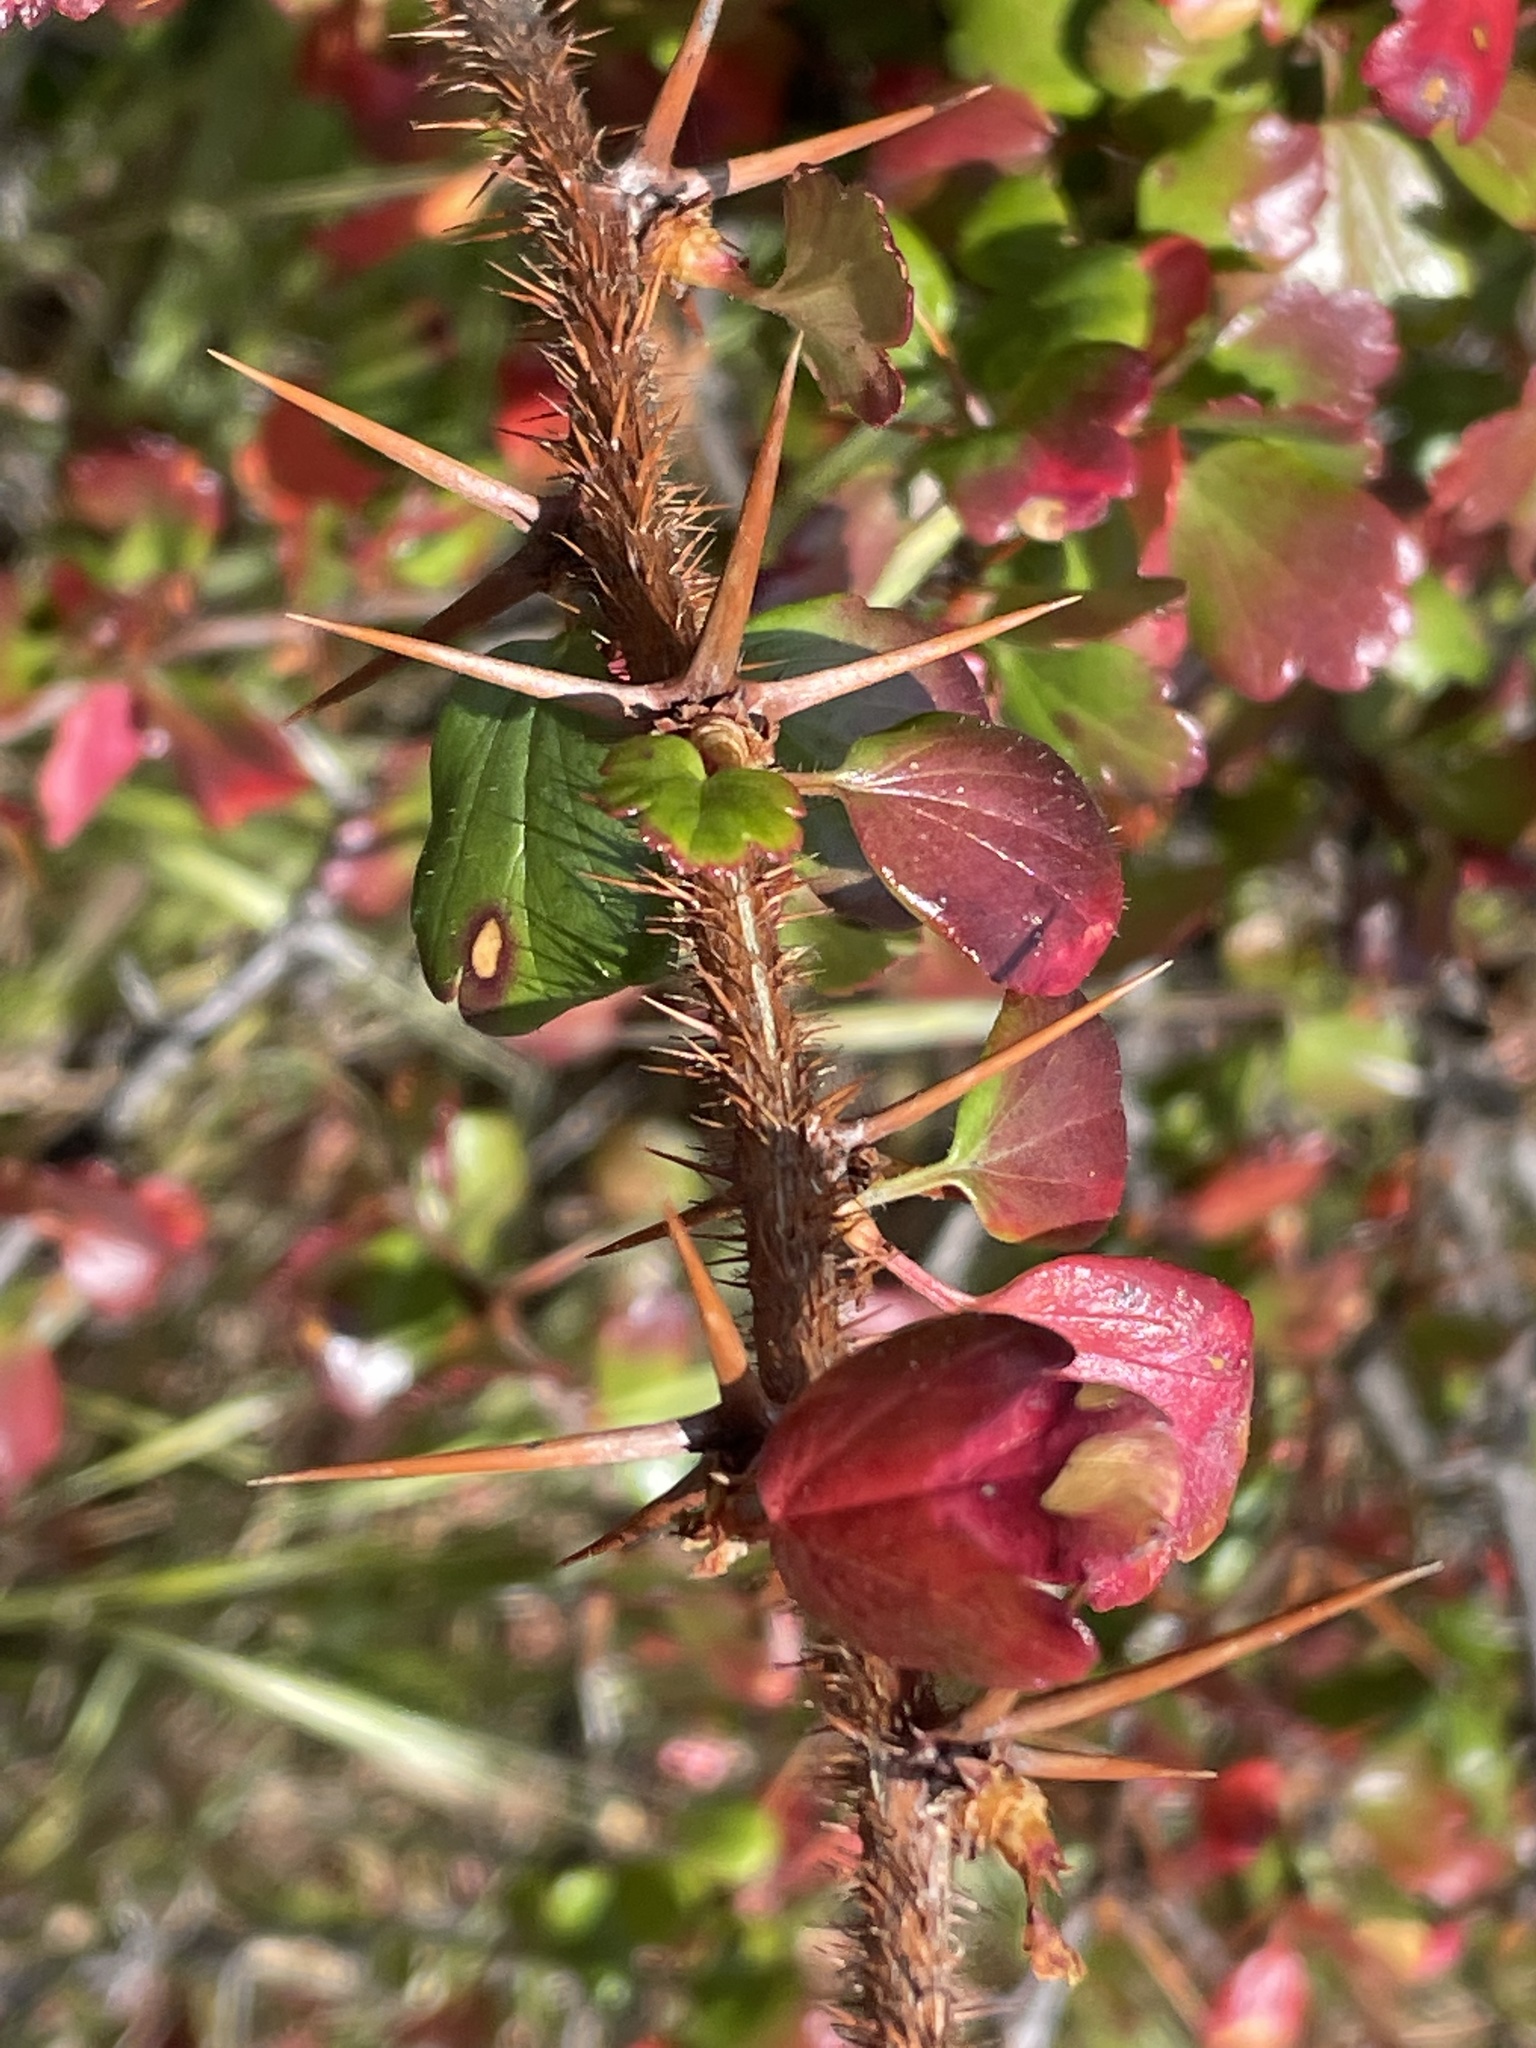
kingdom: Plantae
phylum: Tracheophyta
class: Magnoliopsida
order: Saxifragales
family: Grossulariaceae
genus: Ribes
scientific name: Ribes speciosum
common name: Fuchsia-flower gooseberry
